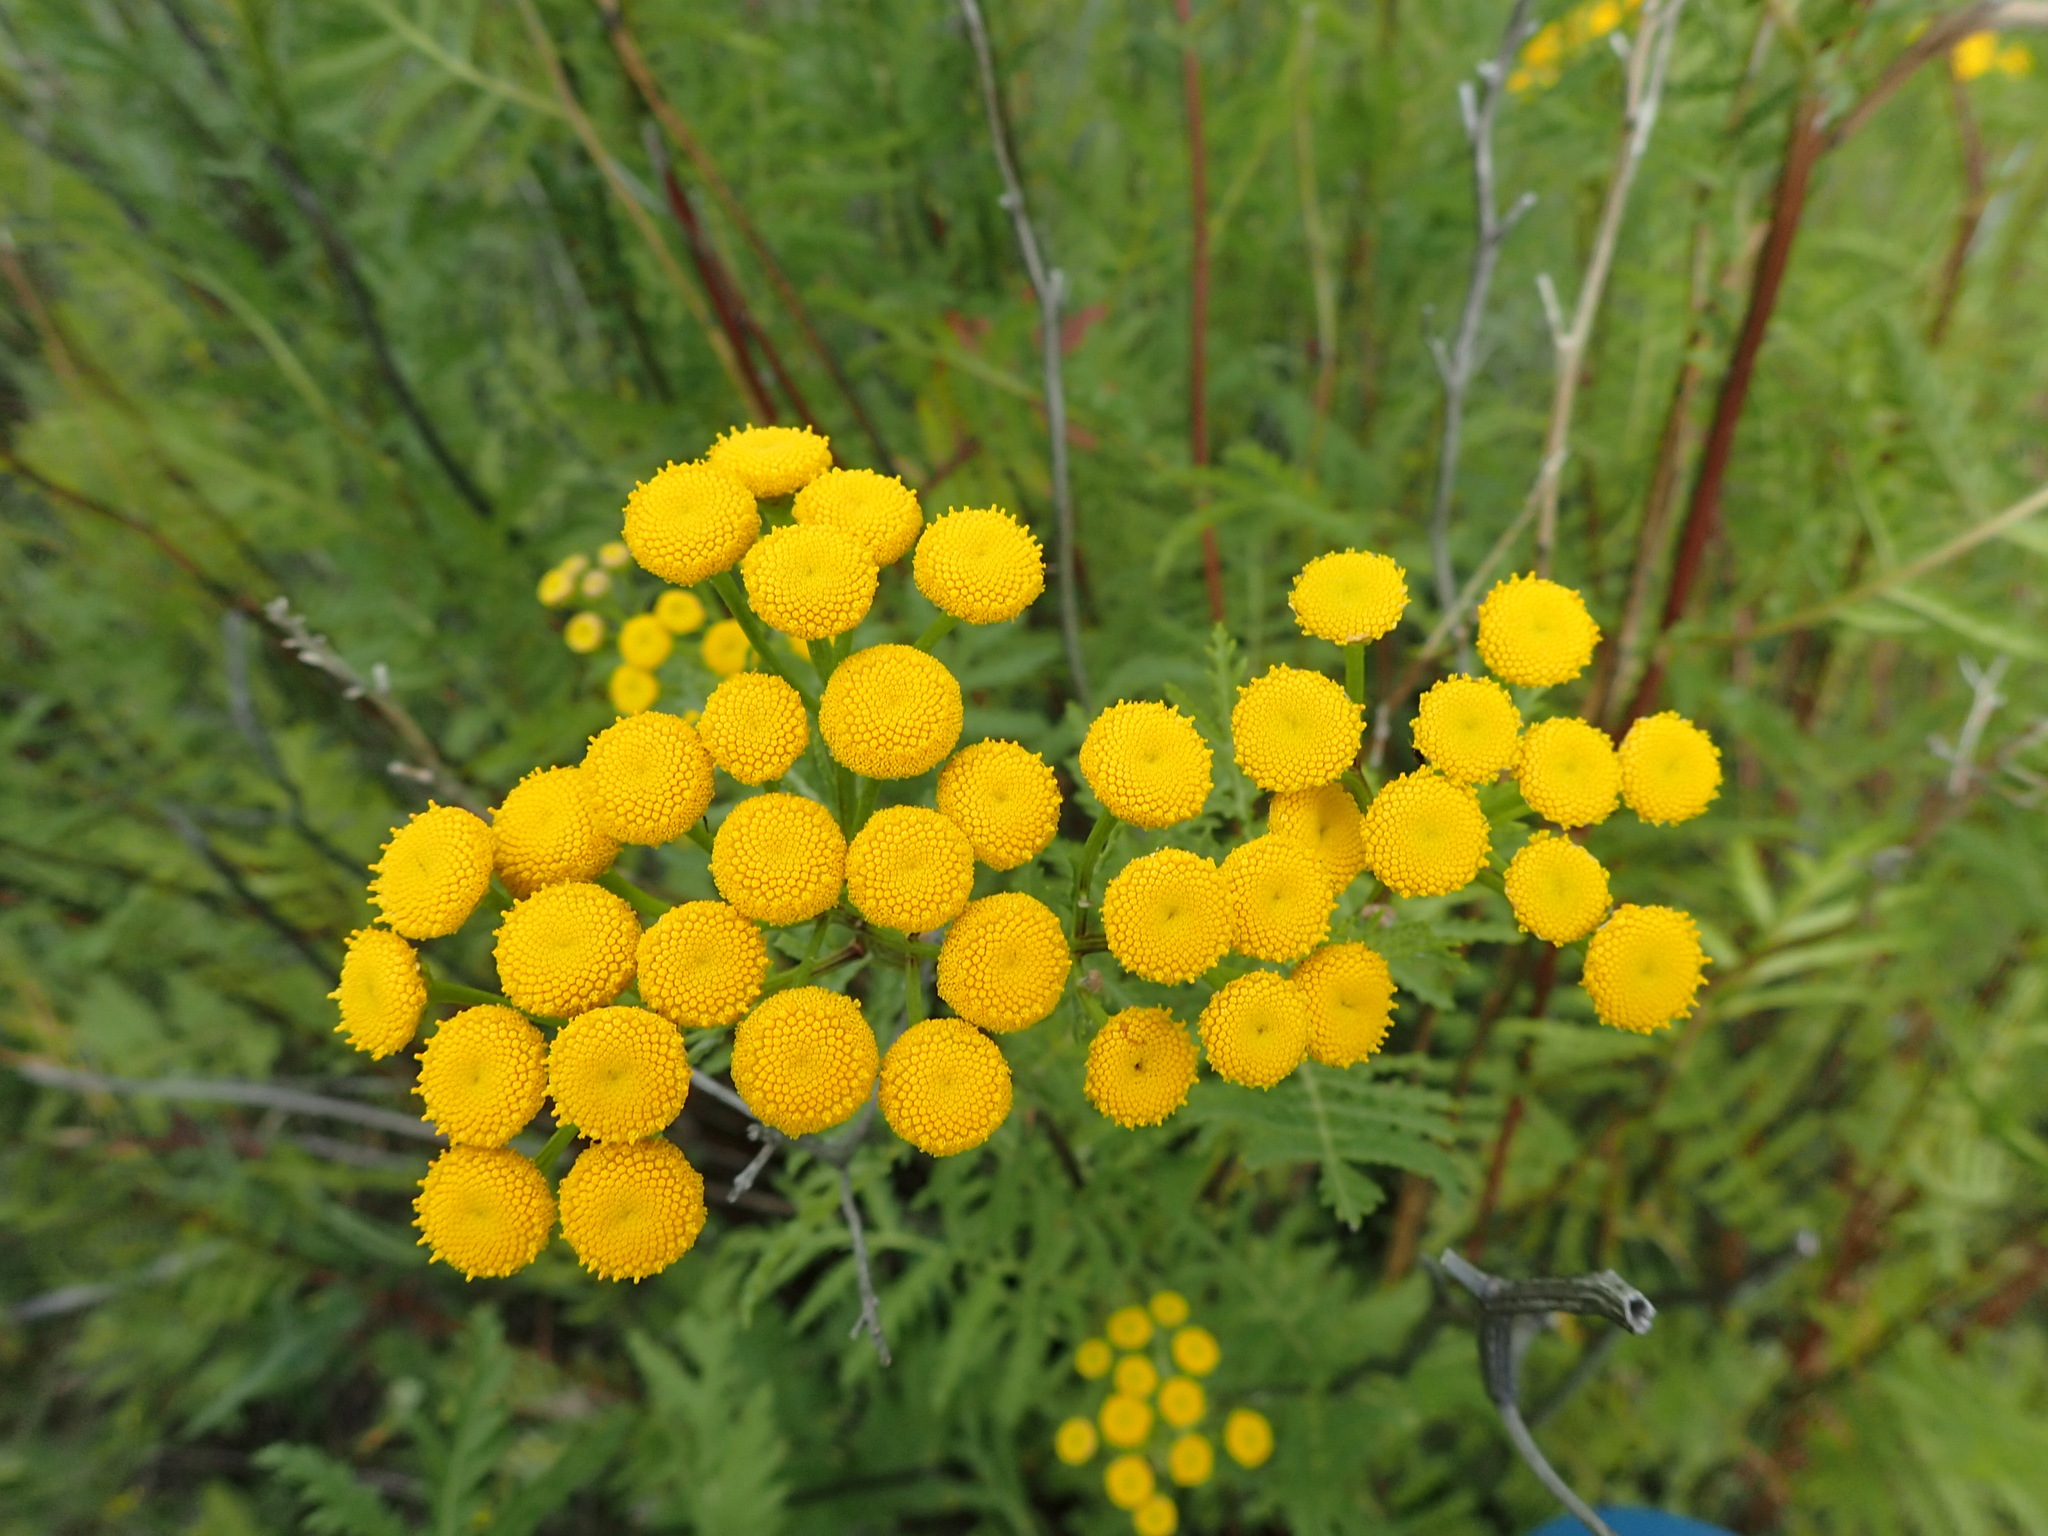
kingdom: Plantae
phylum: Tracheophyta
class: Magnoliopsida
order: Asterales
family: Asteraceae
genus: Tanacetum
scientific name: Tanacetum vulgare
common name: Common tansy
